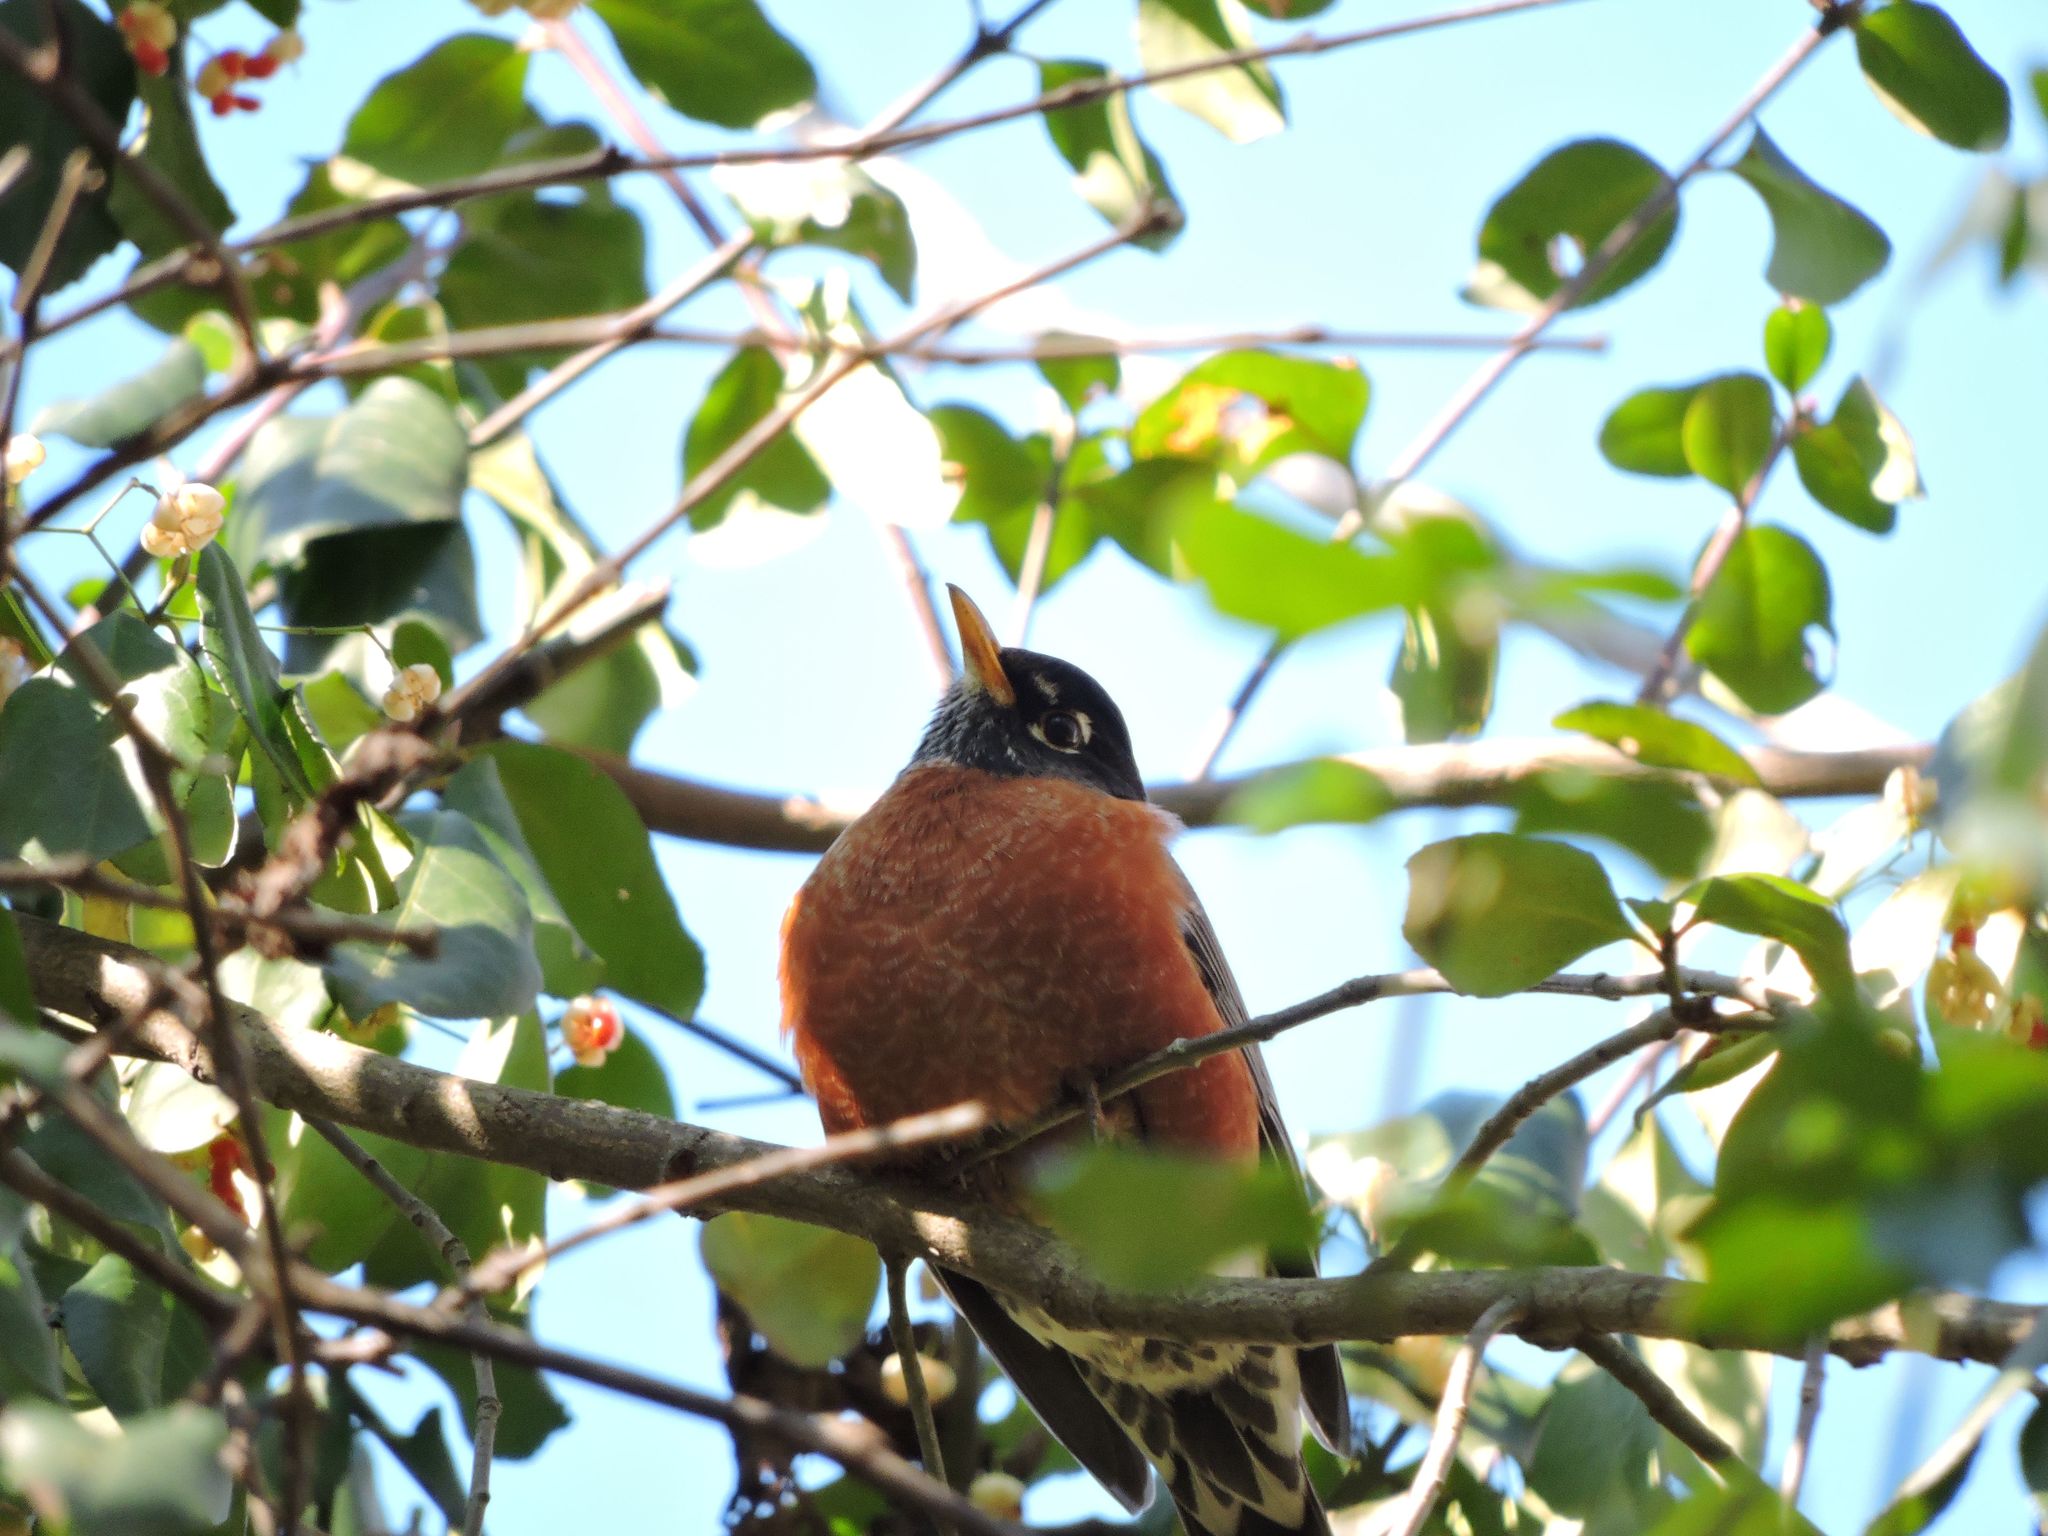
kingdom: Animalia
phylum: Chordata
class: Aves
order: Passeriformes
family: Turdidae
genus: Turdus
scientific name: Turdus migratorius
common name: American robin
